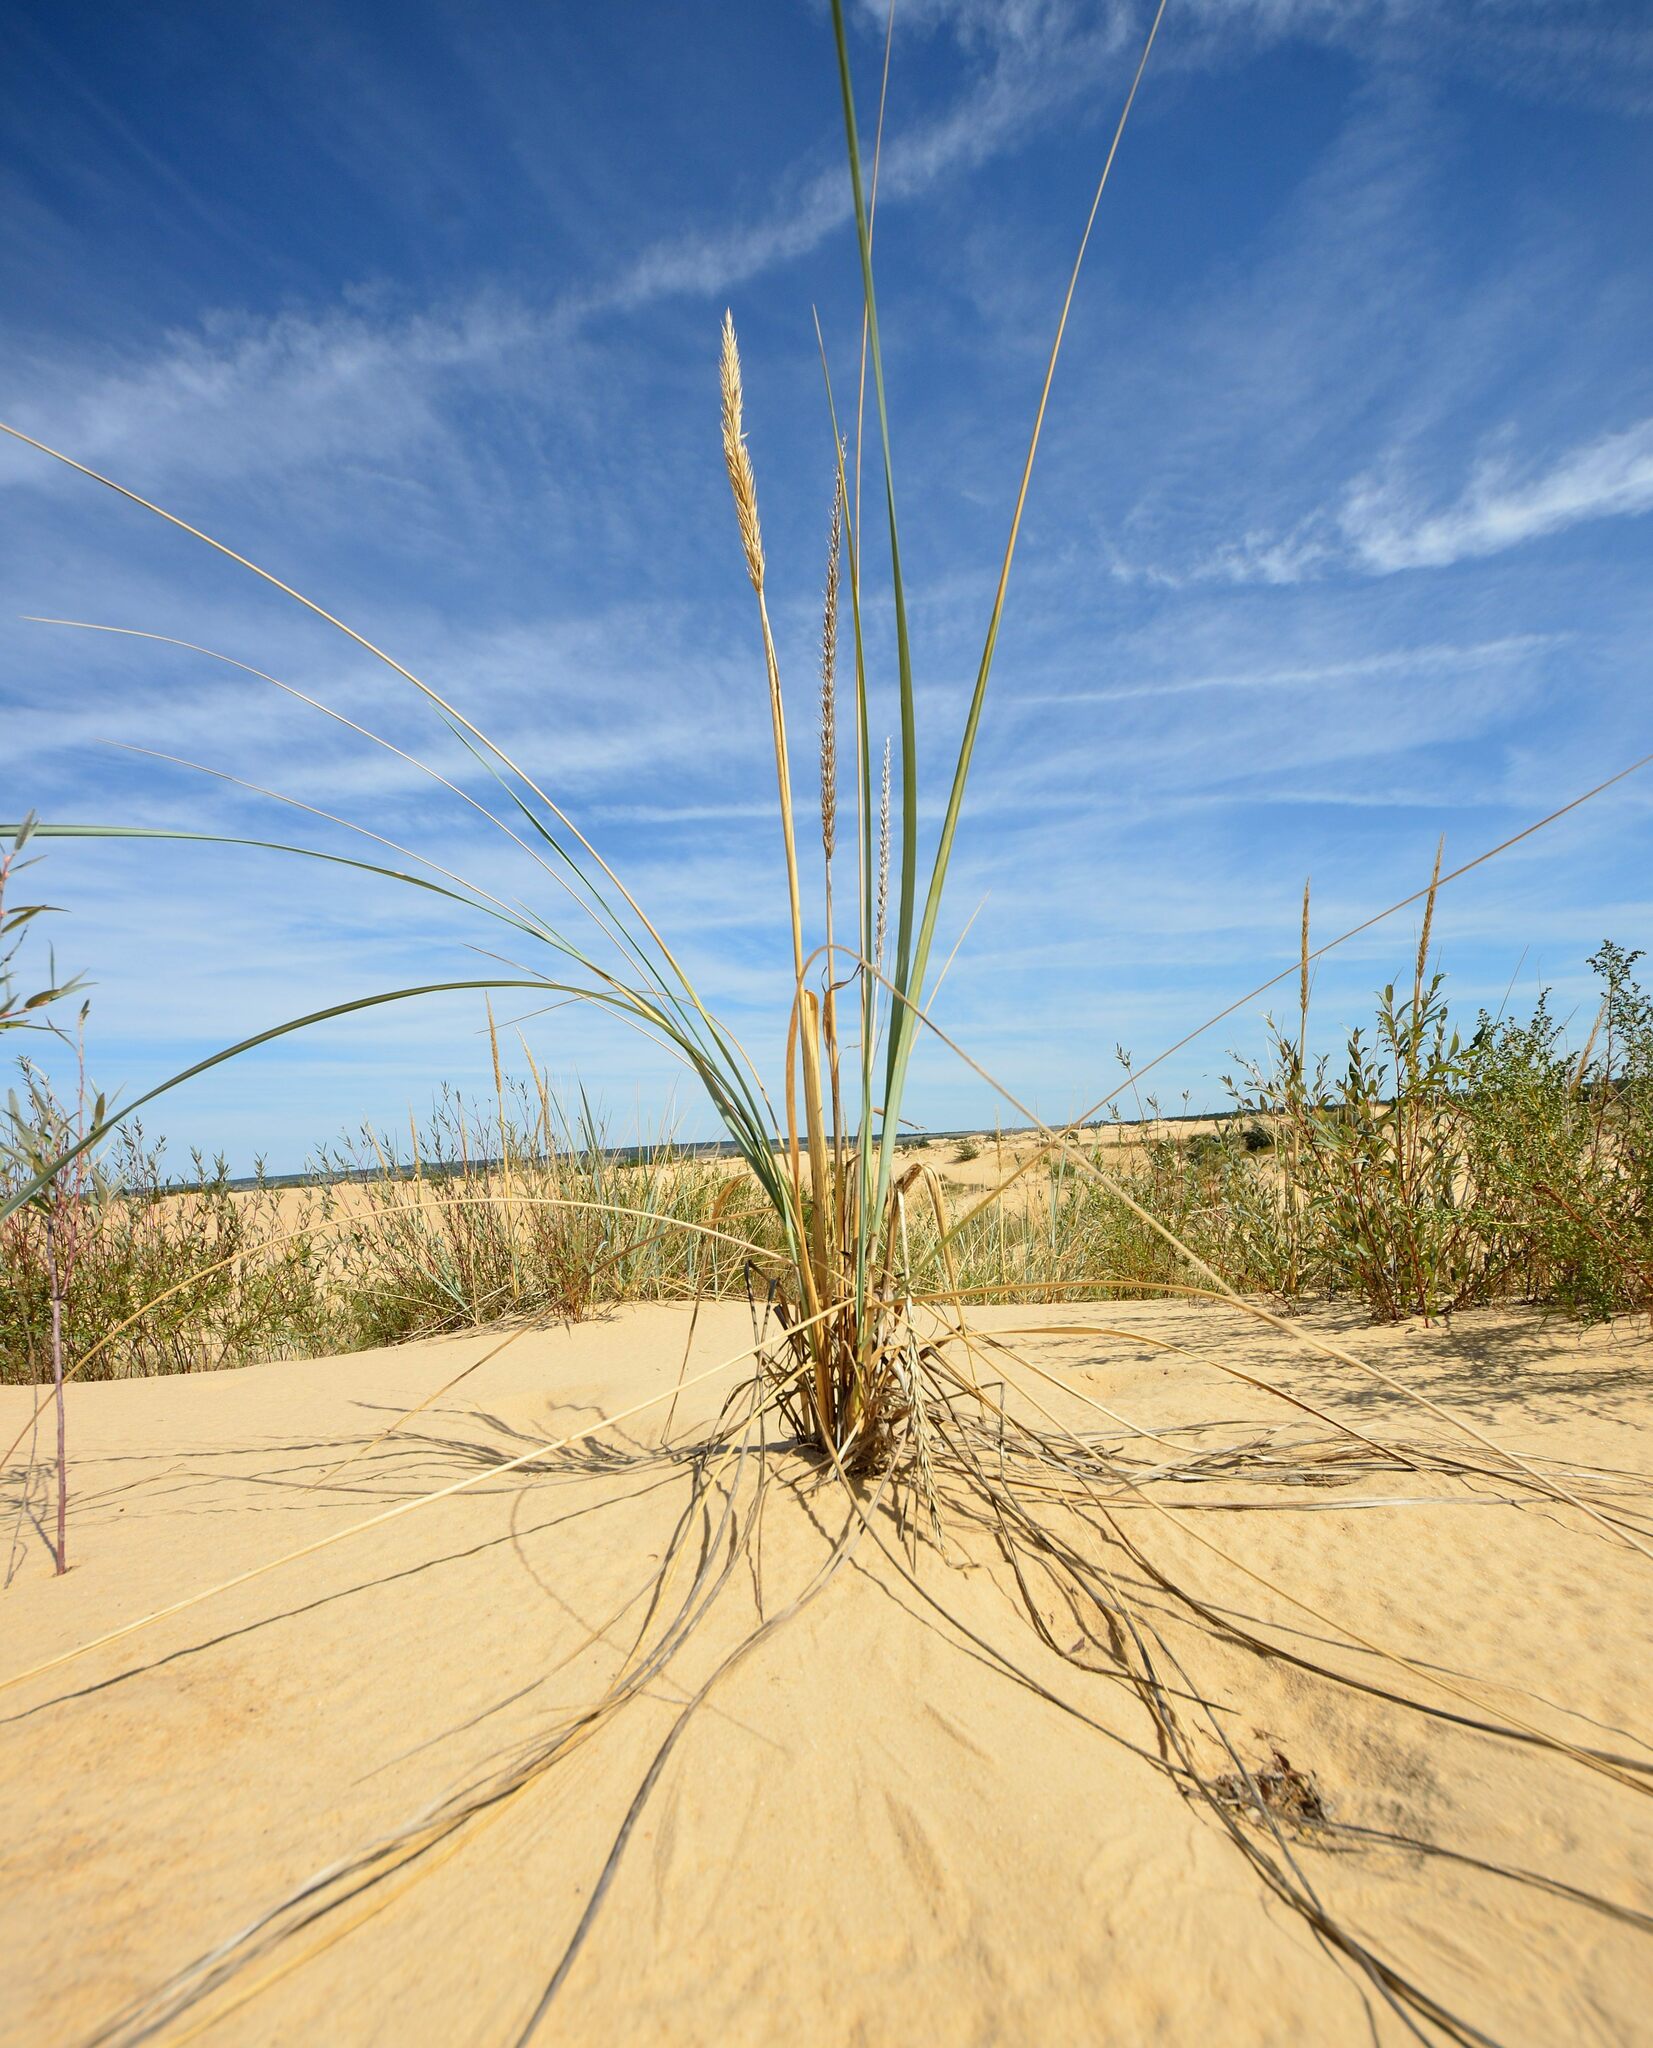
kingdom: Plantae
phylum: Tracheophyta
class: Liliopsida
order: Poales
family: Poaceae
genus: Leymus
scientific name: Leymus racemosus
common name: Mammoth wildrye
